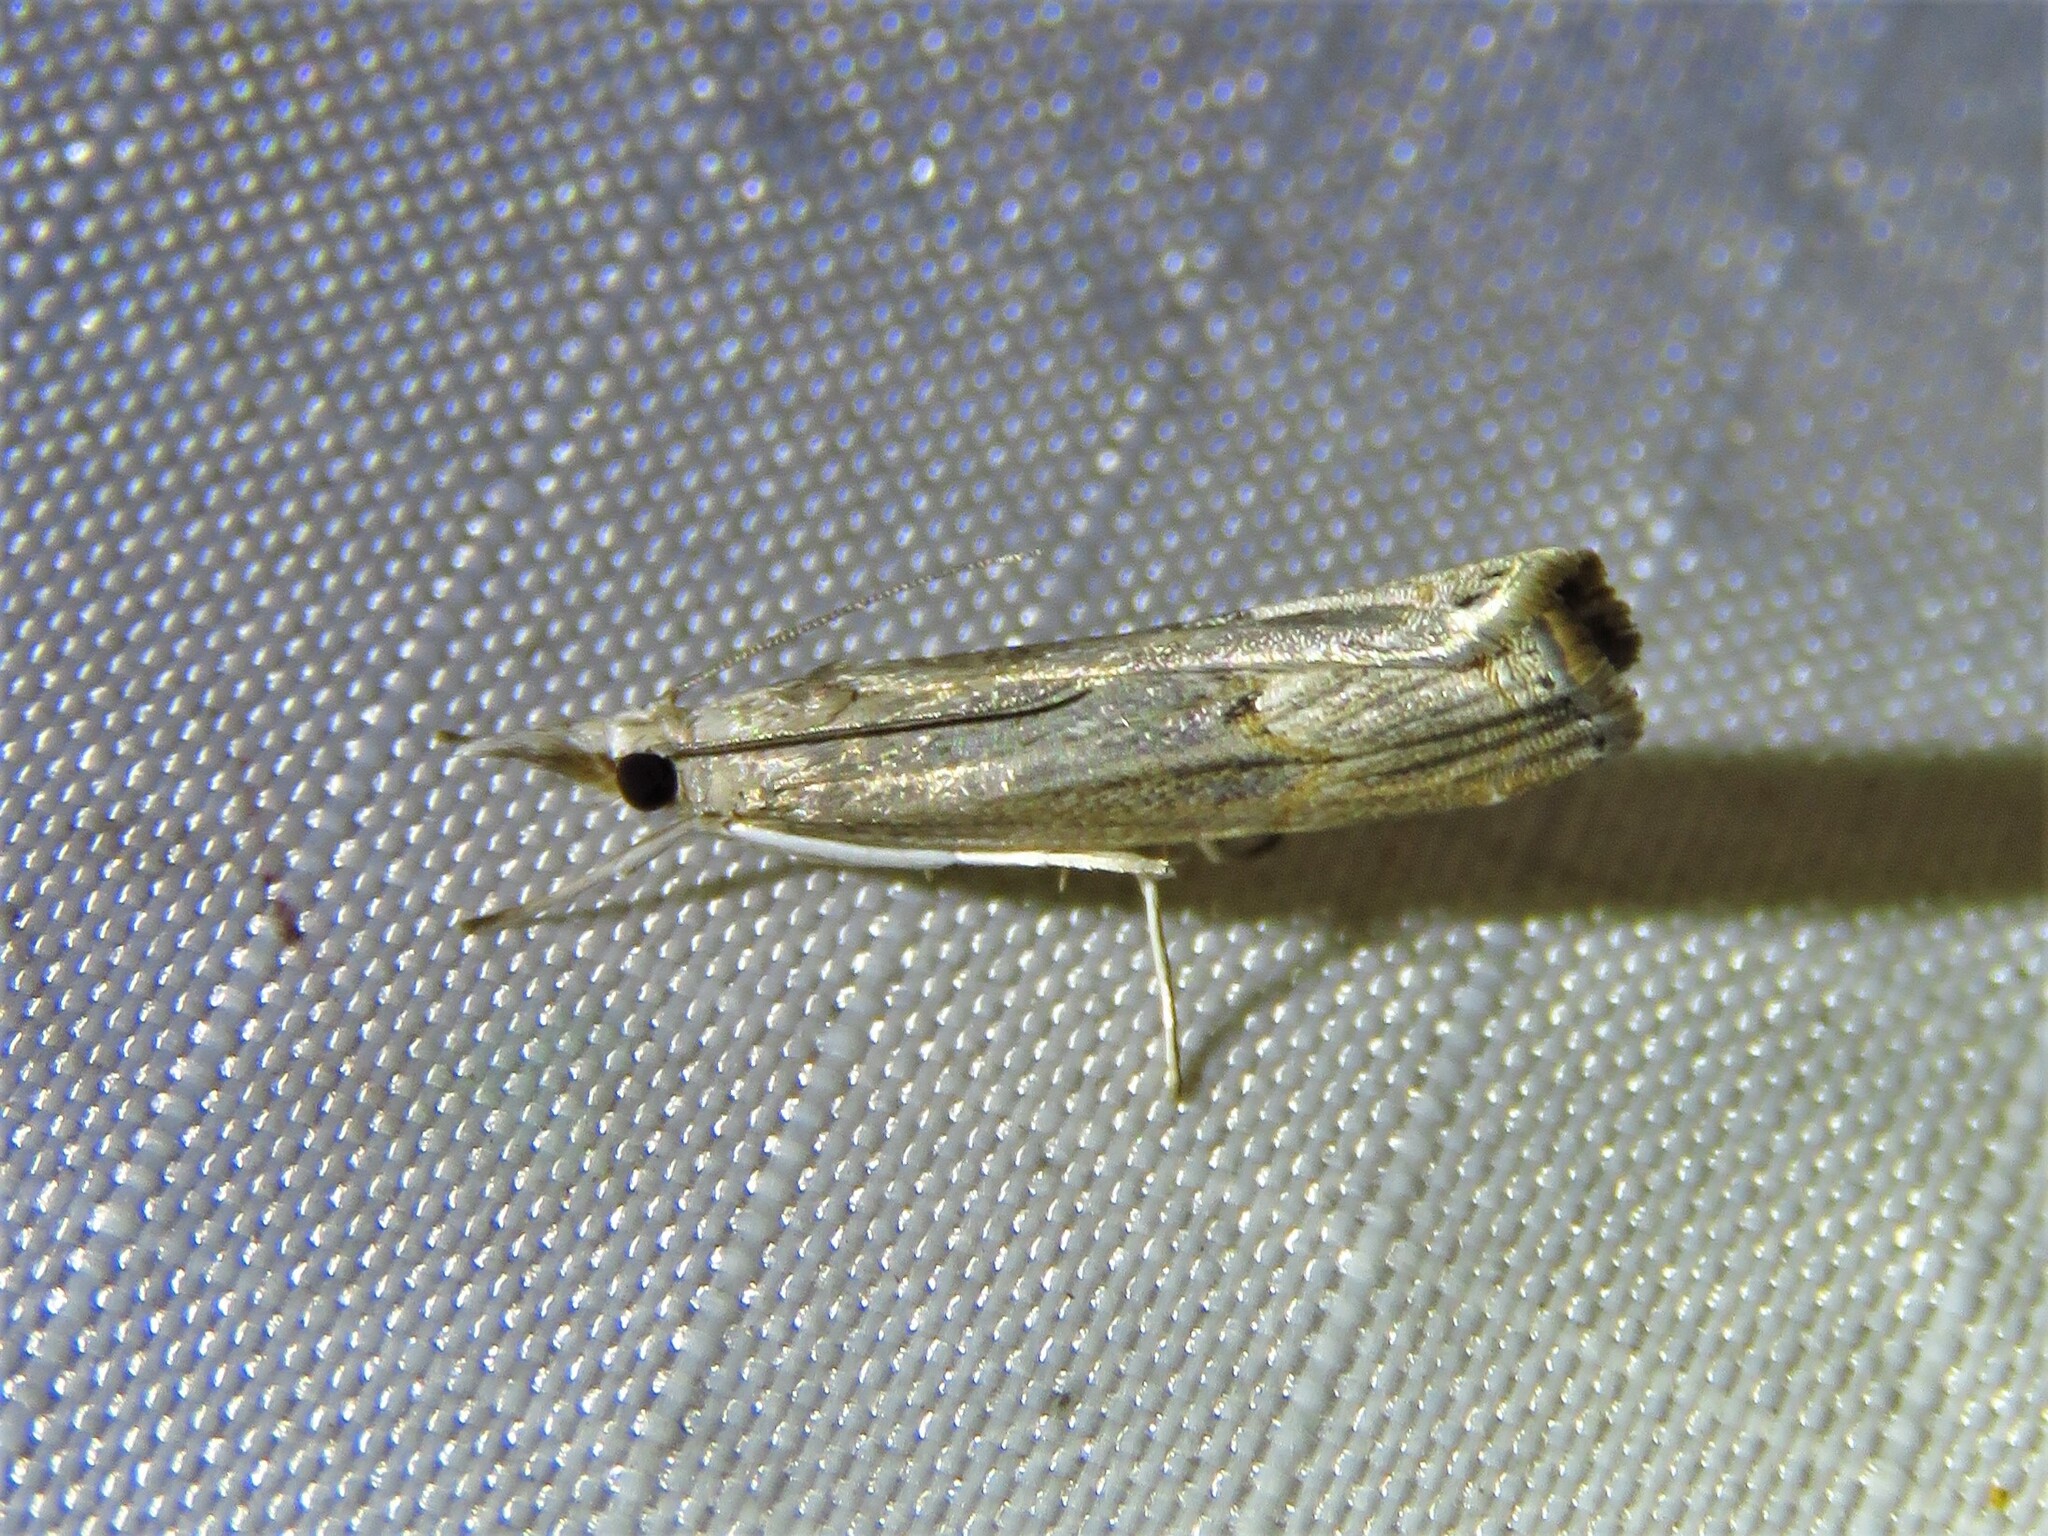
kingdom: Animalia
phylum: Arthropoda
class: Insecta
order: Lepidoptera
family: Crambidae
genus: Parapediasia
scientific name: Parapediasia teterellus
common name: Bluegrass webworm moth
